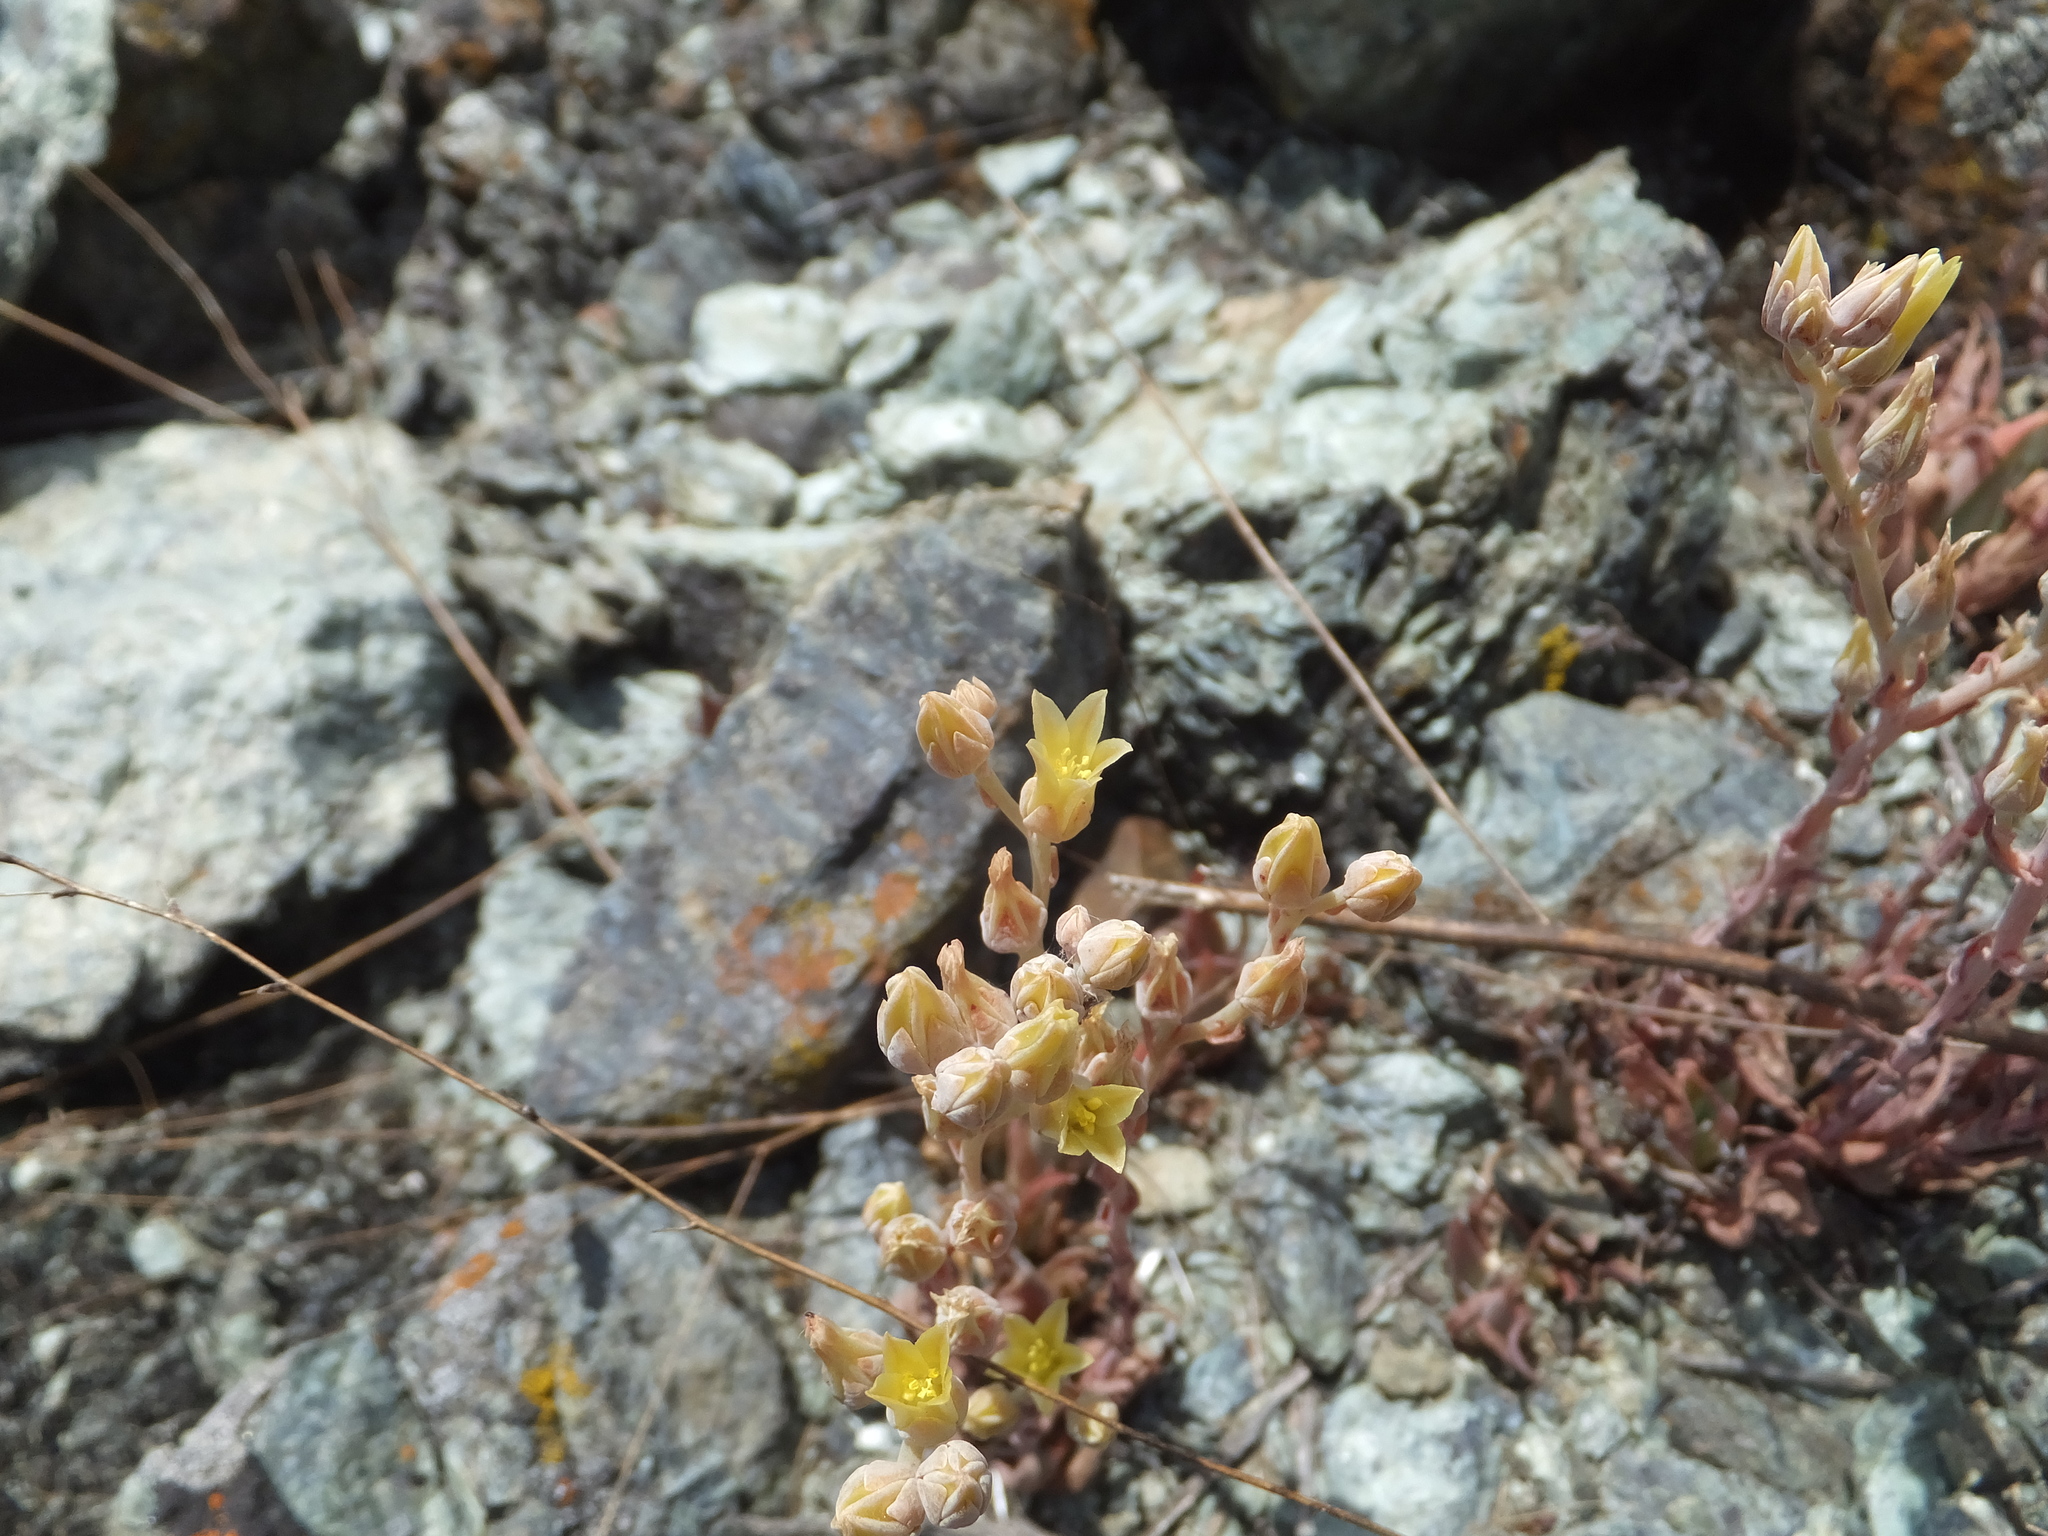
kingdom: Plantae
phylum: Tracheophyta
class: Magnoliopsida
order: Saxifragales
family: Crassulaceae
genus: Dudleya
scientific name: Dudleya abramsii
